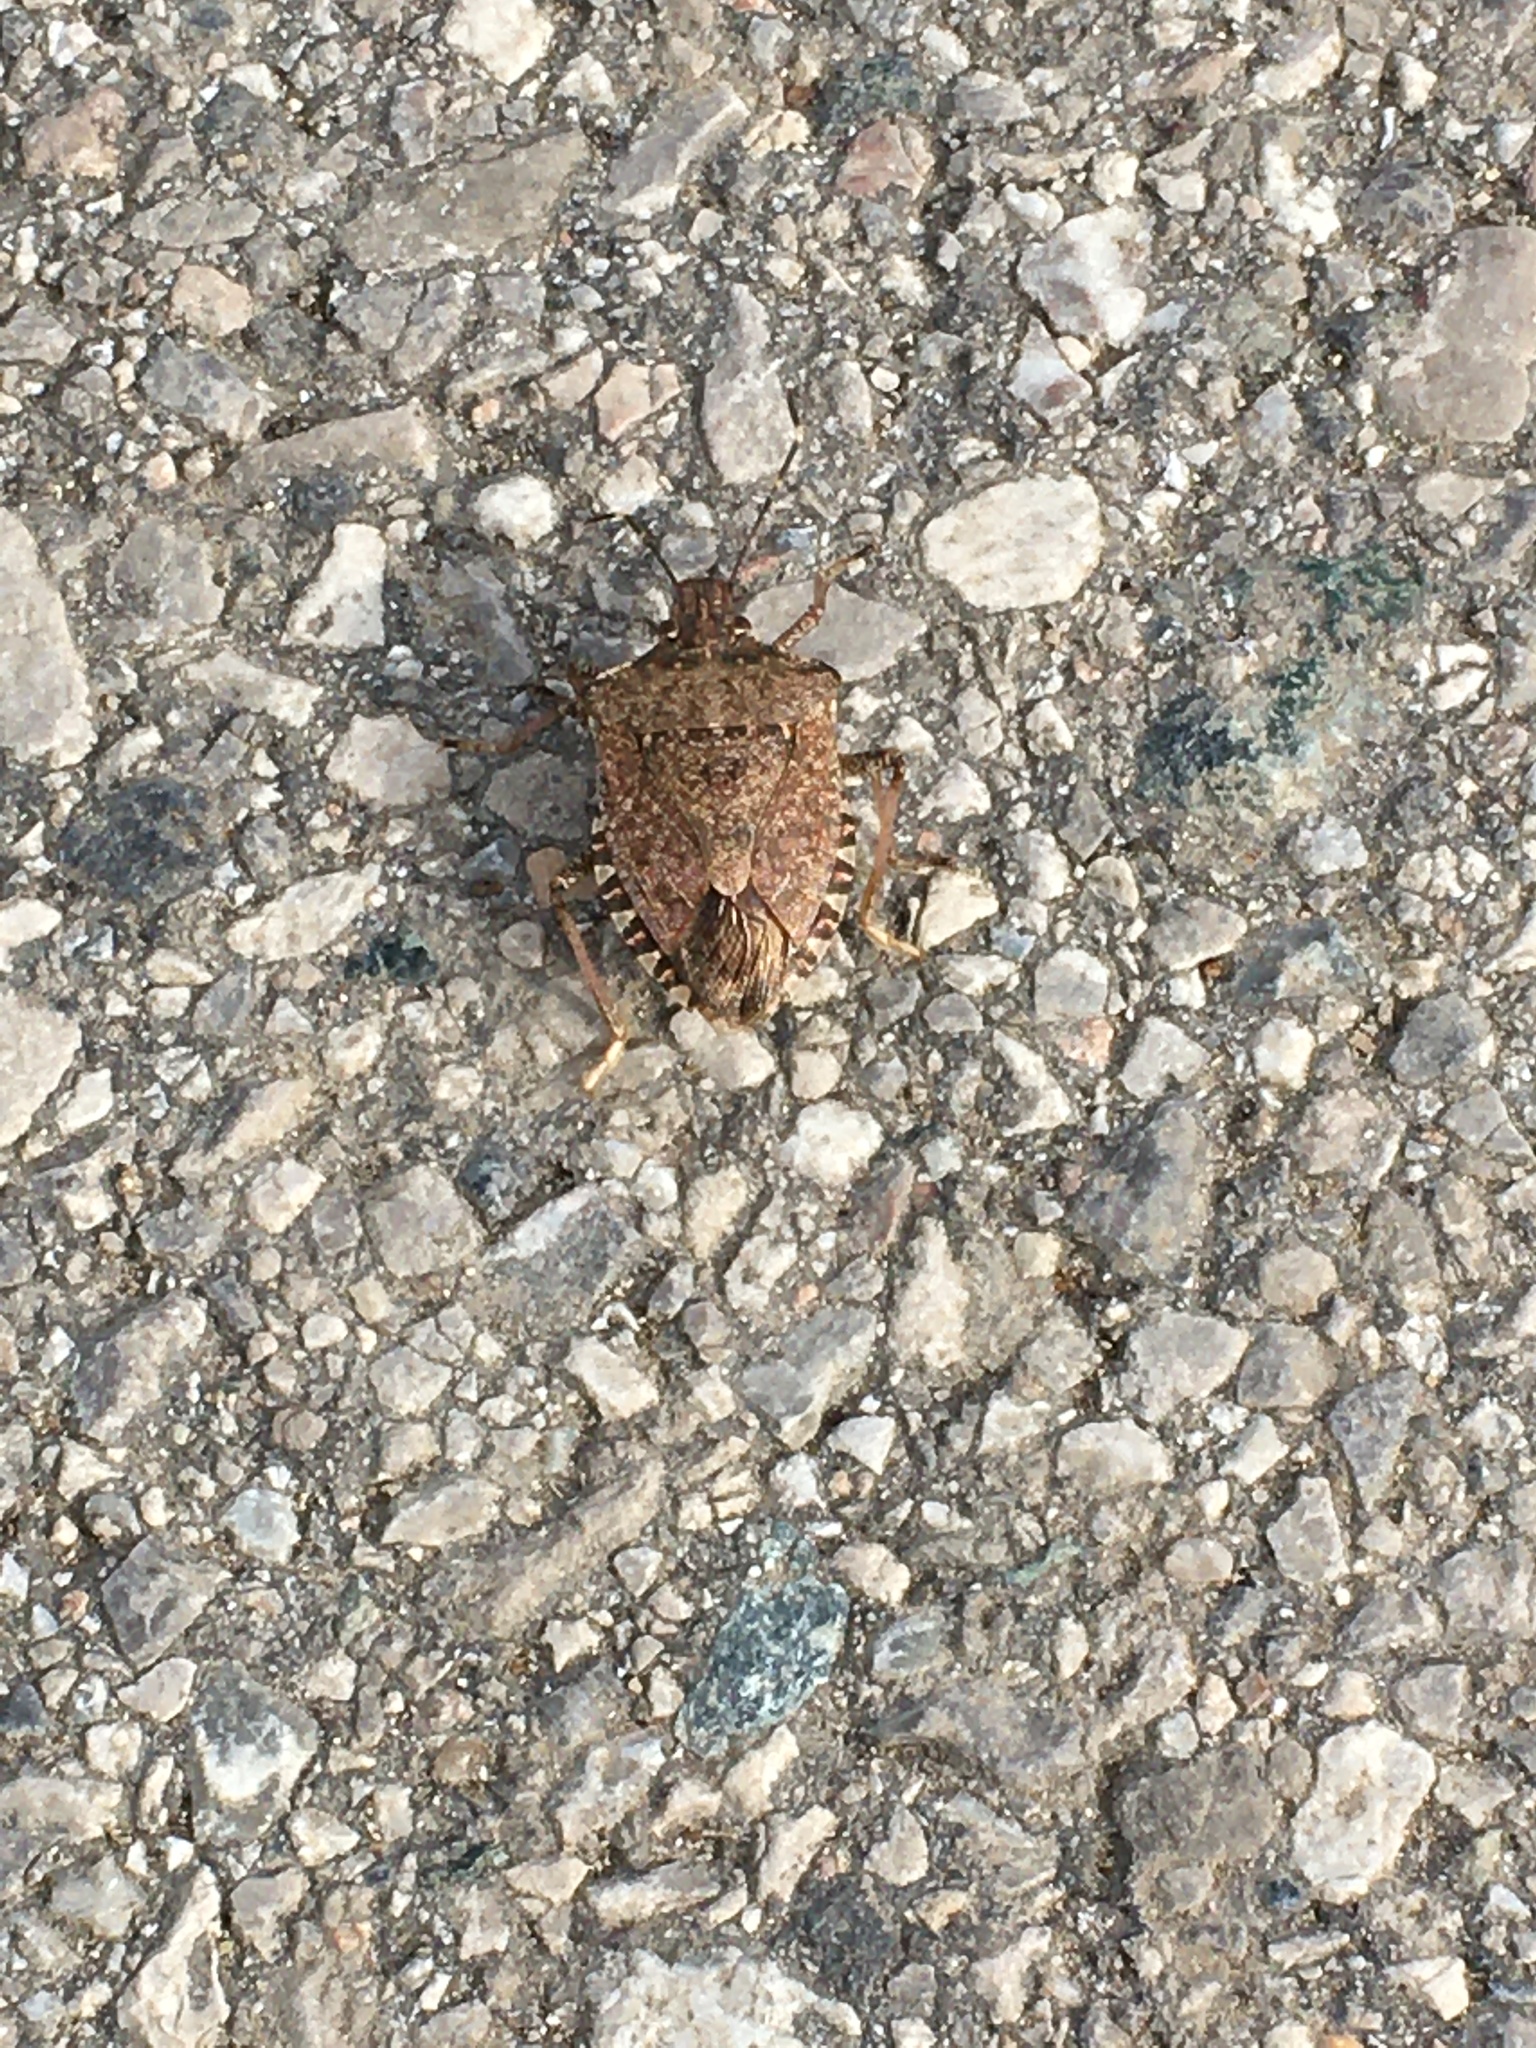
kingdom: Animalia
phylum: Arthropoda
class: Insecta
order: Hemiptera
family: Pentatomidae
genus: Halyomorpha
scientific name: Halyomorpha halys
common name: Brown marmorated stink bug
